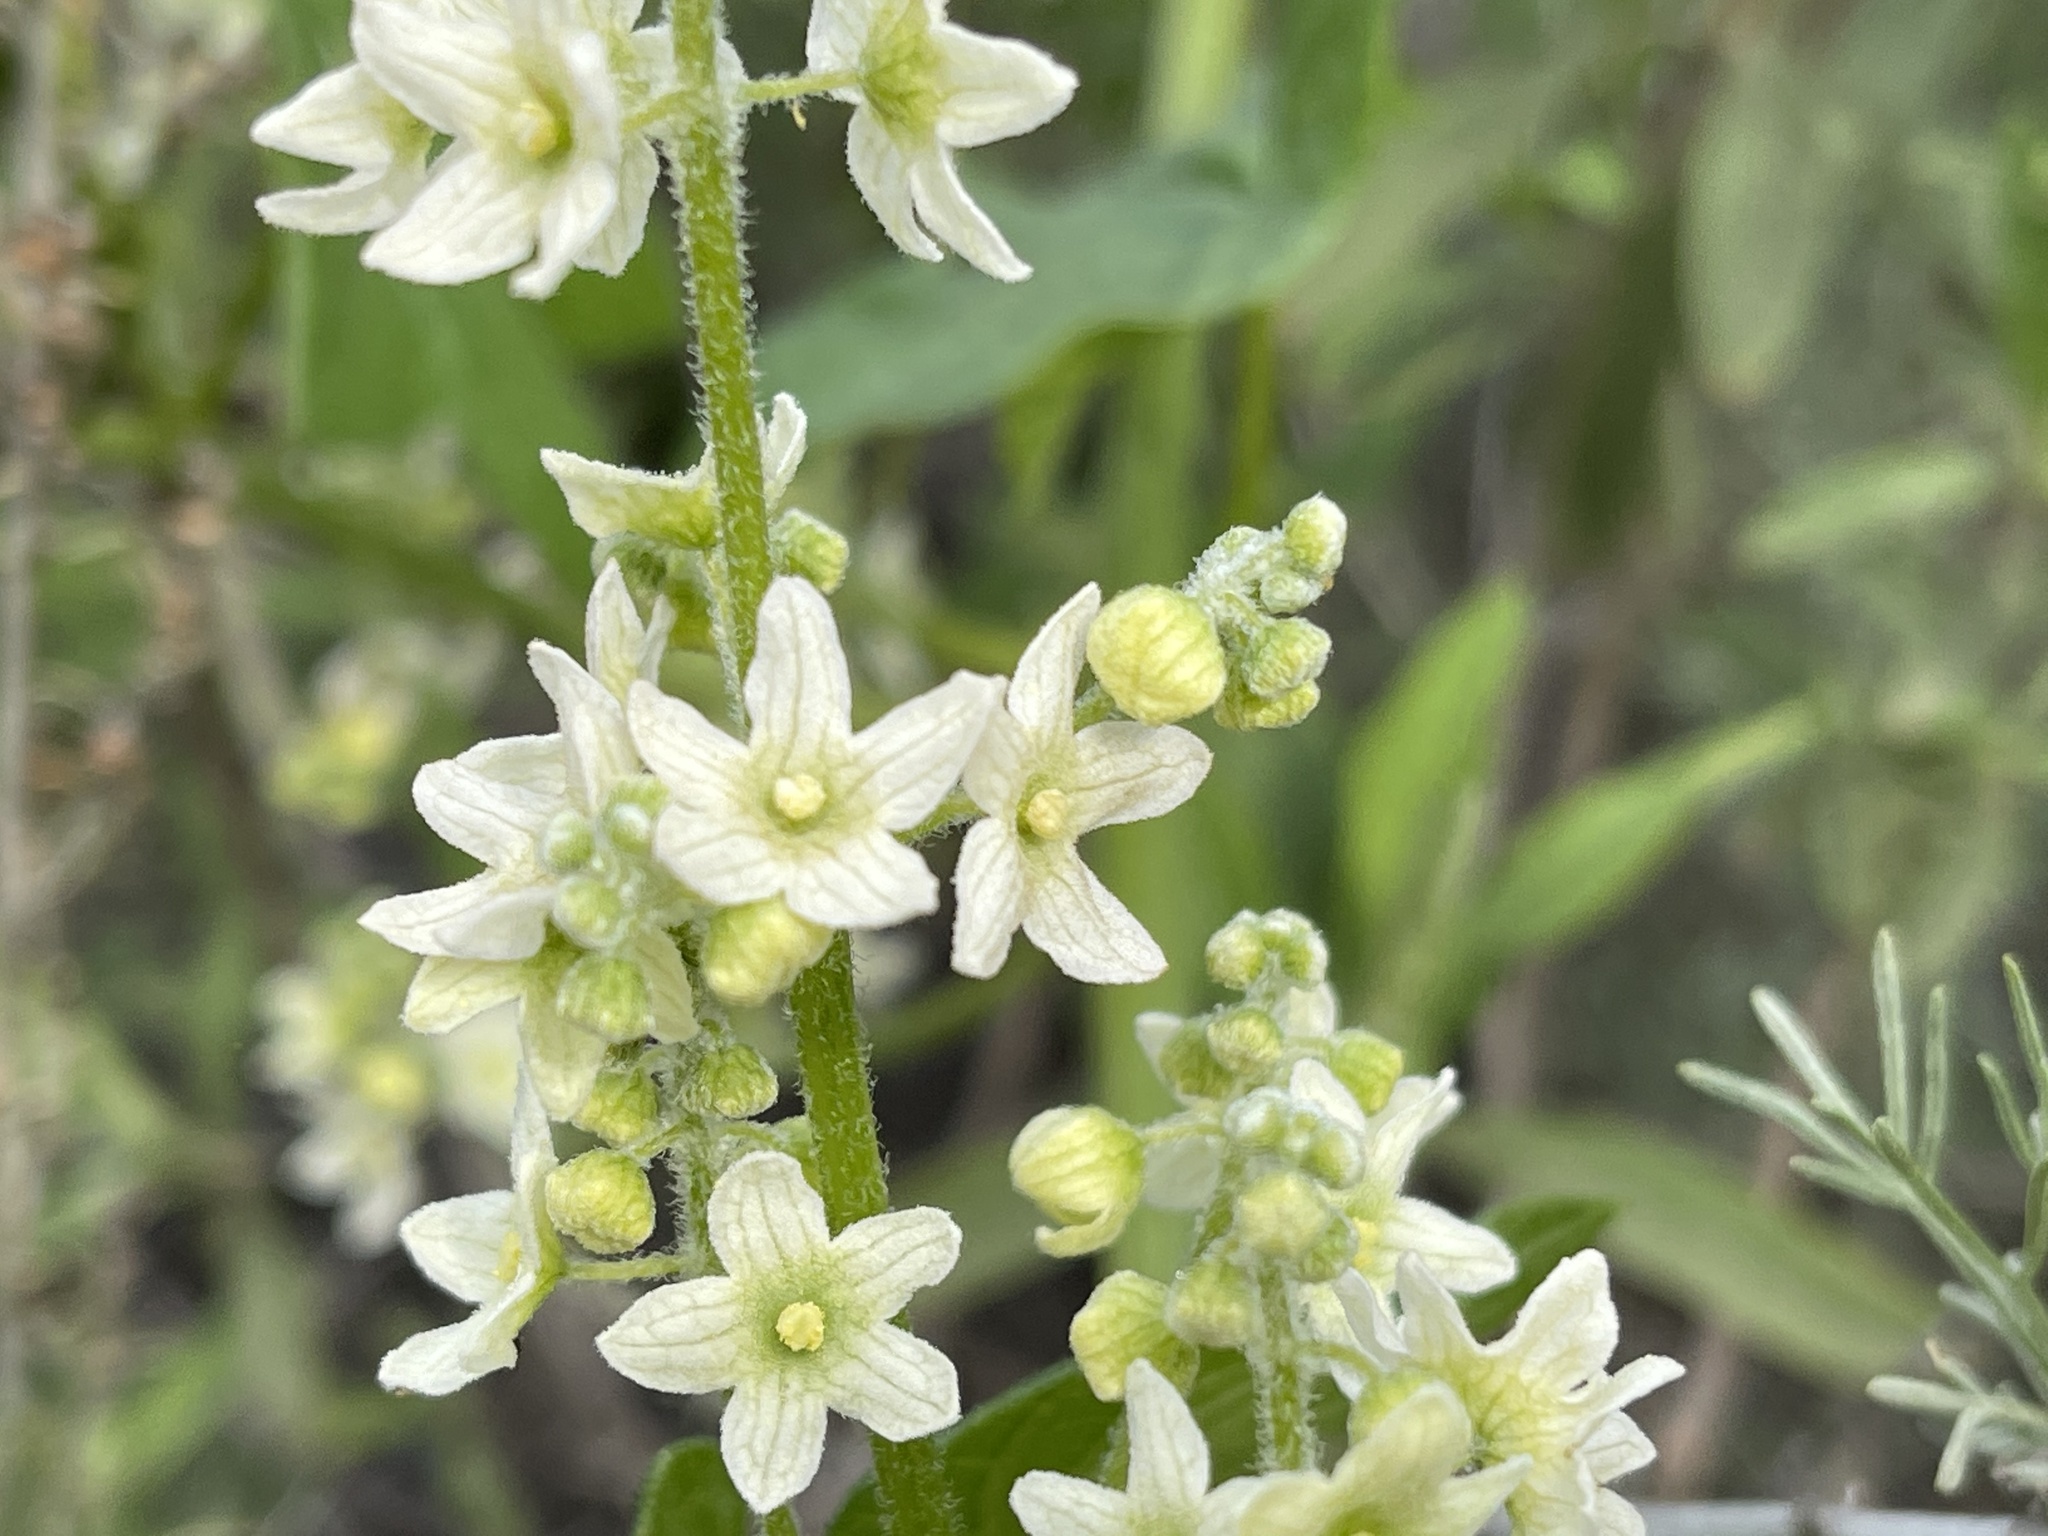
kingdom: Plantae
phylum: Tracheophyta
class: Magnoliopsida
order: Cucurbitales
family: Cucurbitaceae
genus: Marah
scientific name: Marah fabacea
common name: California manroot
